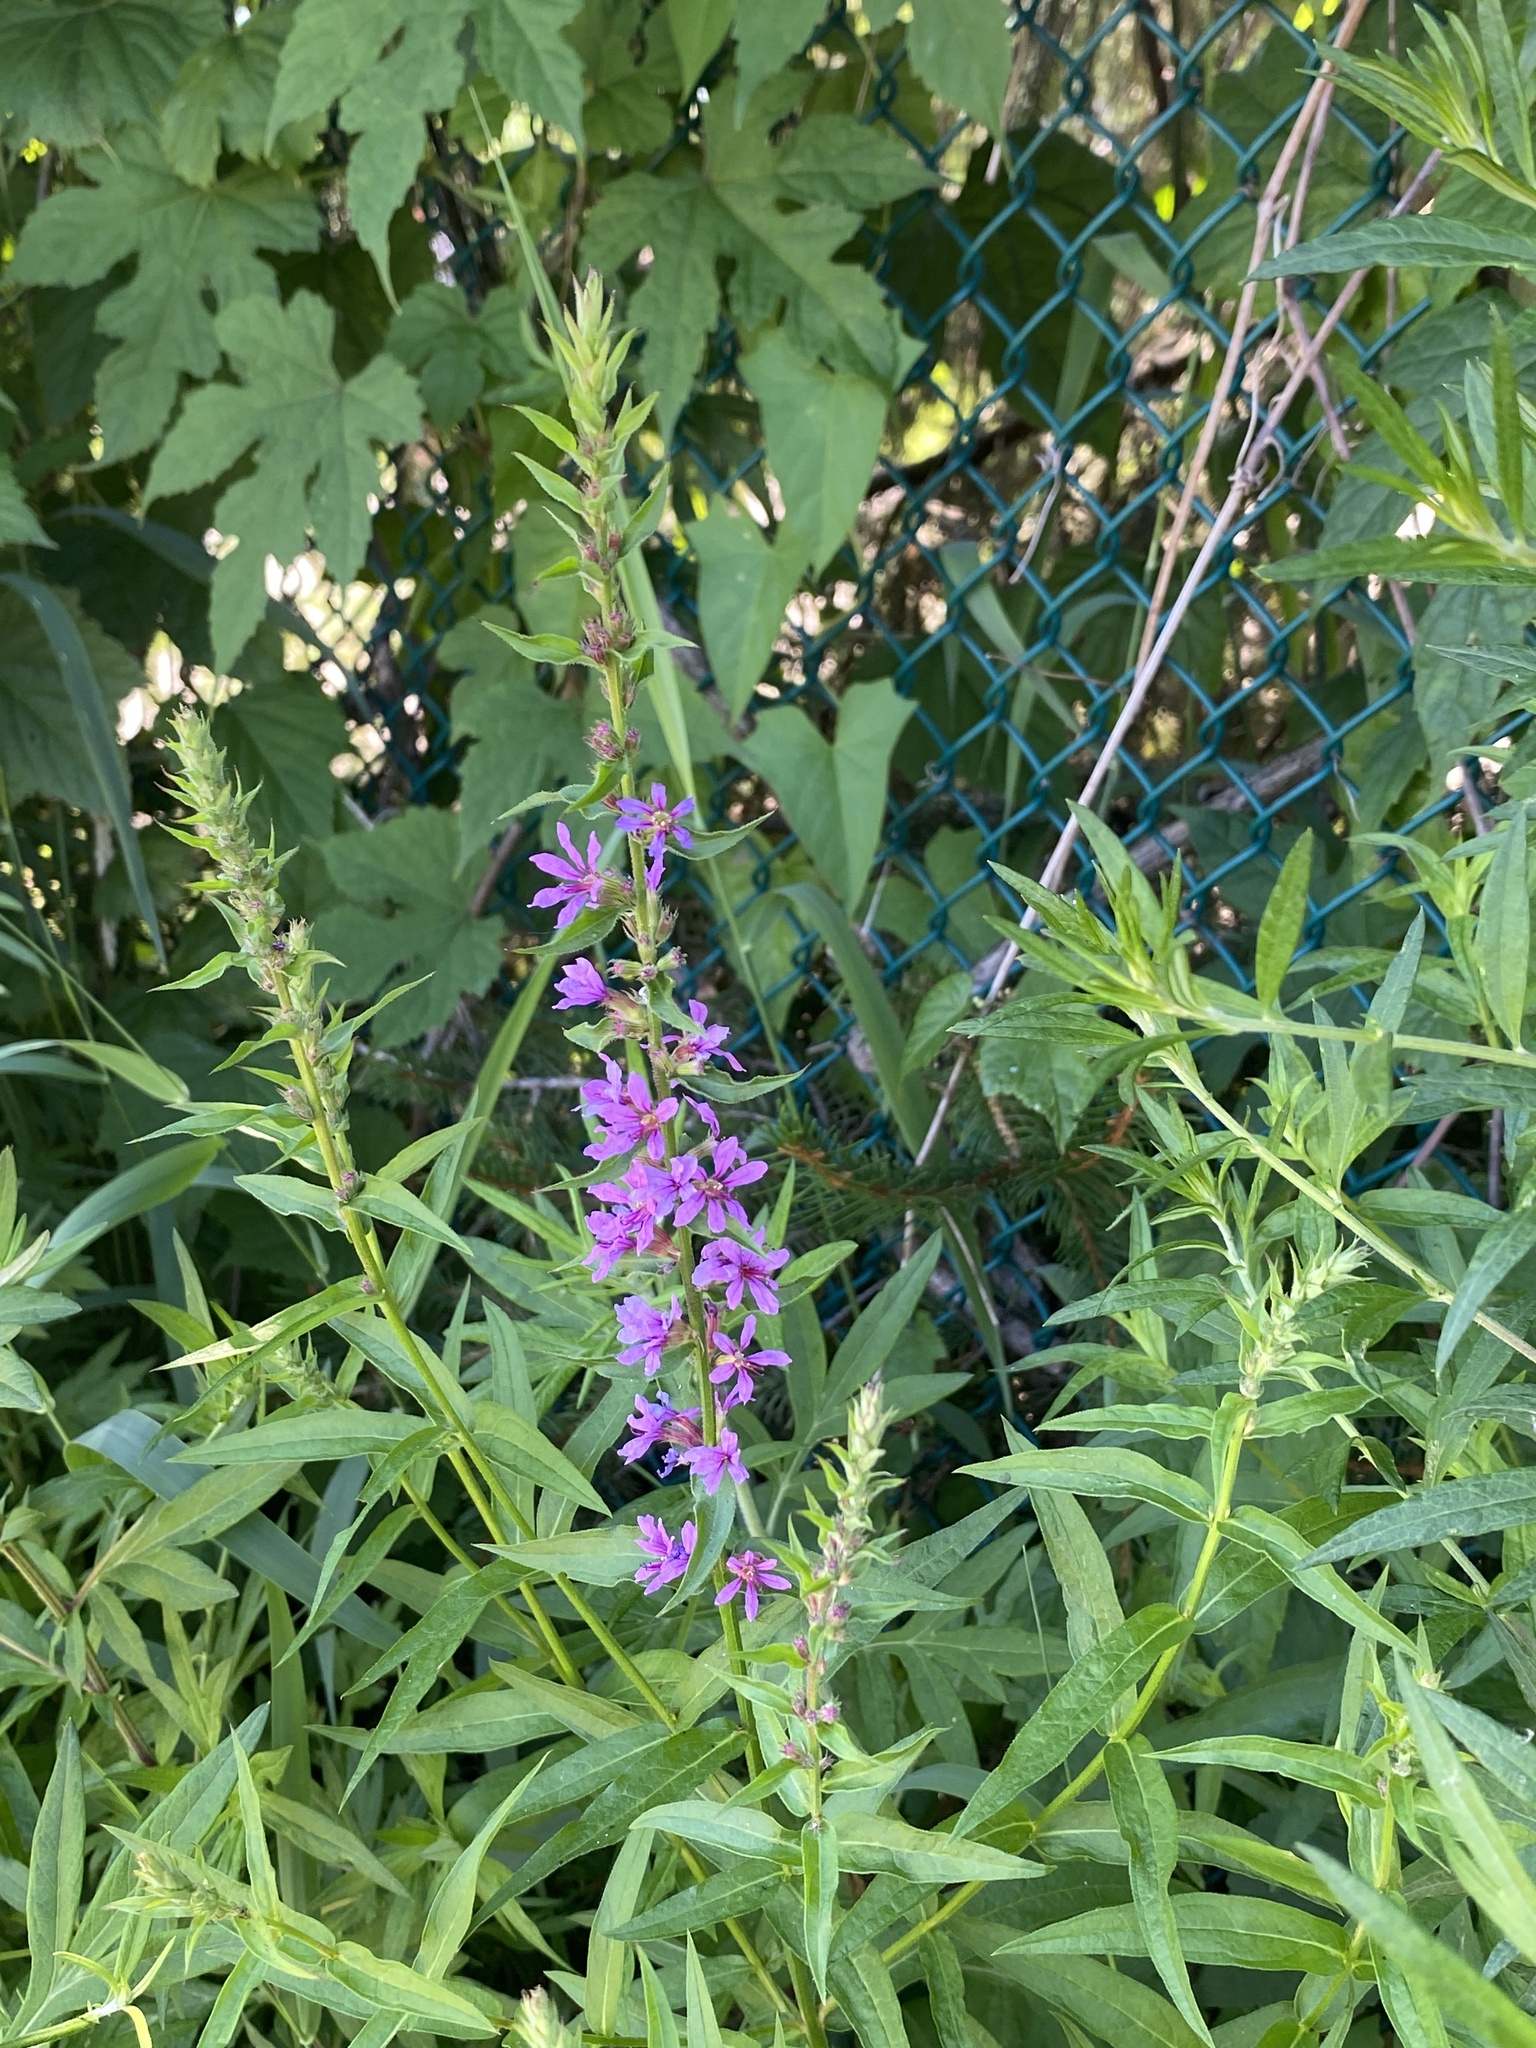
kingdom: Plantae
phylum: Tracheophyta
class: Magnoliopsida
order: Myrtales
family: Lythraceae
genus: Lythrum
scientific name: Lythrum salicaria
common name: Purple loosestrife
